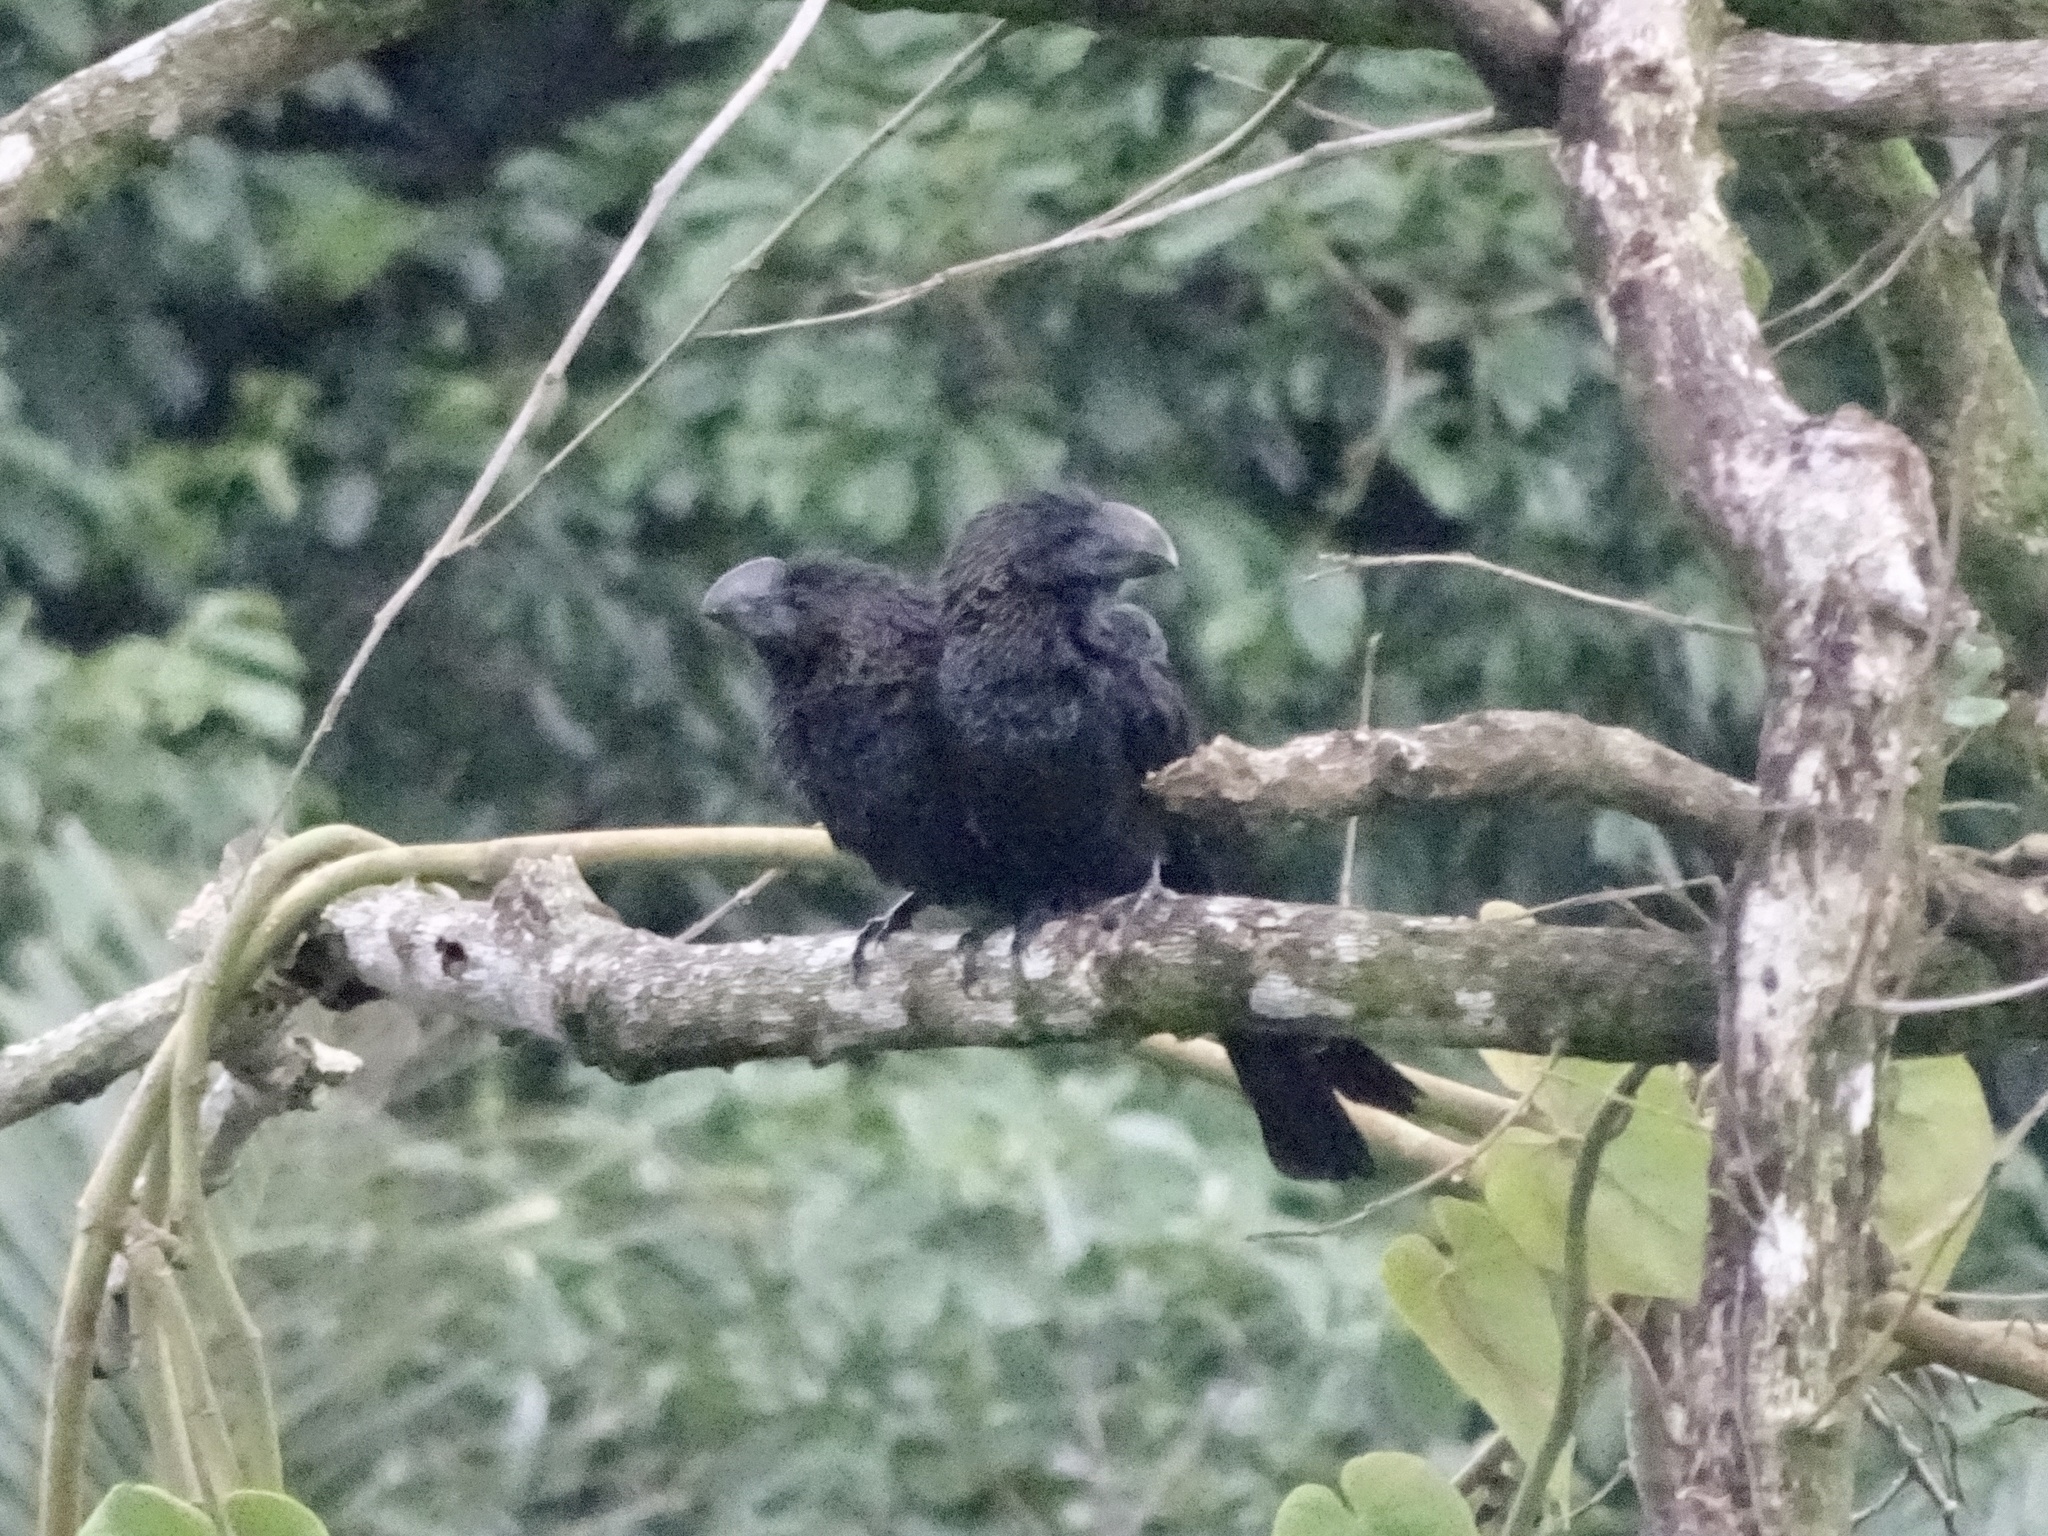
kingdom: Animalia
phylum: Chordata
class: Aves
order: Cuculiformes
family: Cuculidae
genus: Crotophaga
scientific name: Crotophaga ani
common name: Smooth-billed ani
